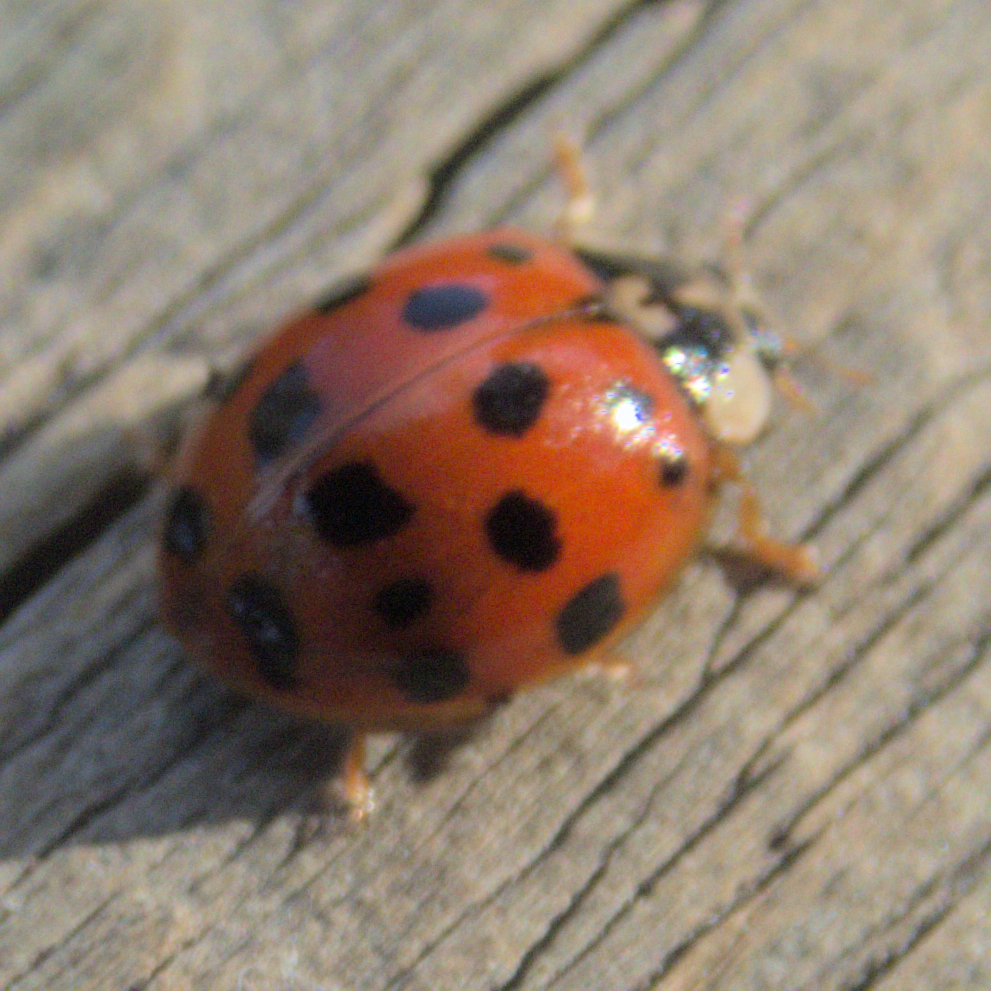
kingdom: Animalia
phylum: Arthropoda
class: Insecta
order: Coleoptera
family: Coccinellidae
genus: Harmonia
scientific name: Harmonia axyridis
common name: Harlequin ladybird
